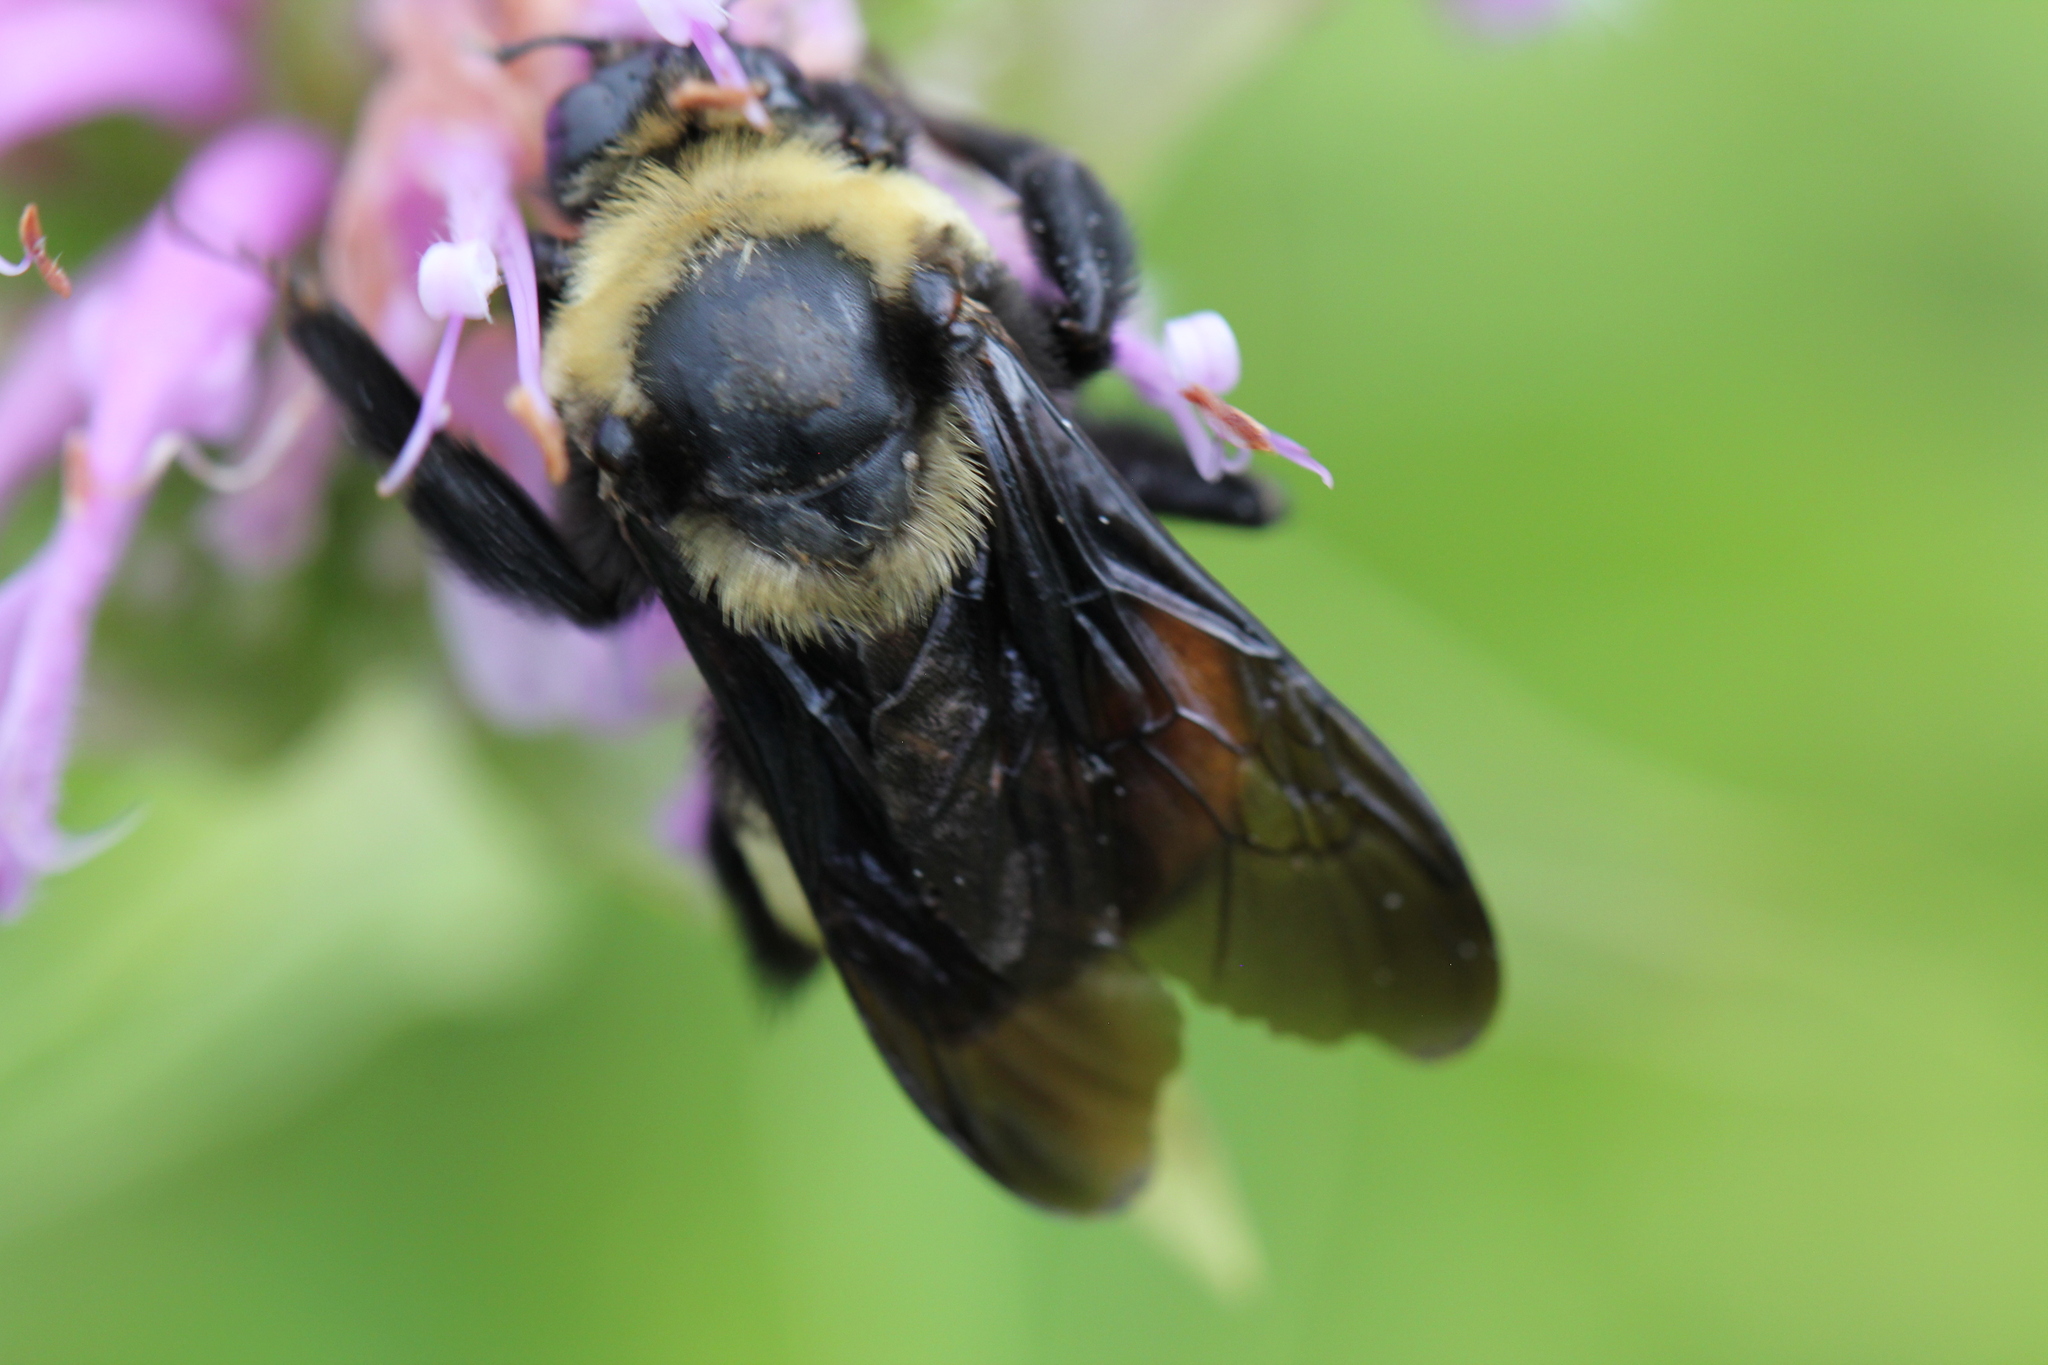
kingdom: Animalia
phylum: Arthropoda
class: Insecta
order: Hymenoptera
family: Apidae
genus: Bombus
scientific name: Bombus auricomus
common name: Black and gold bumble bee
